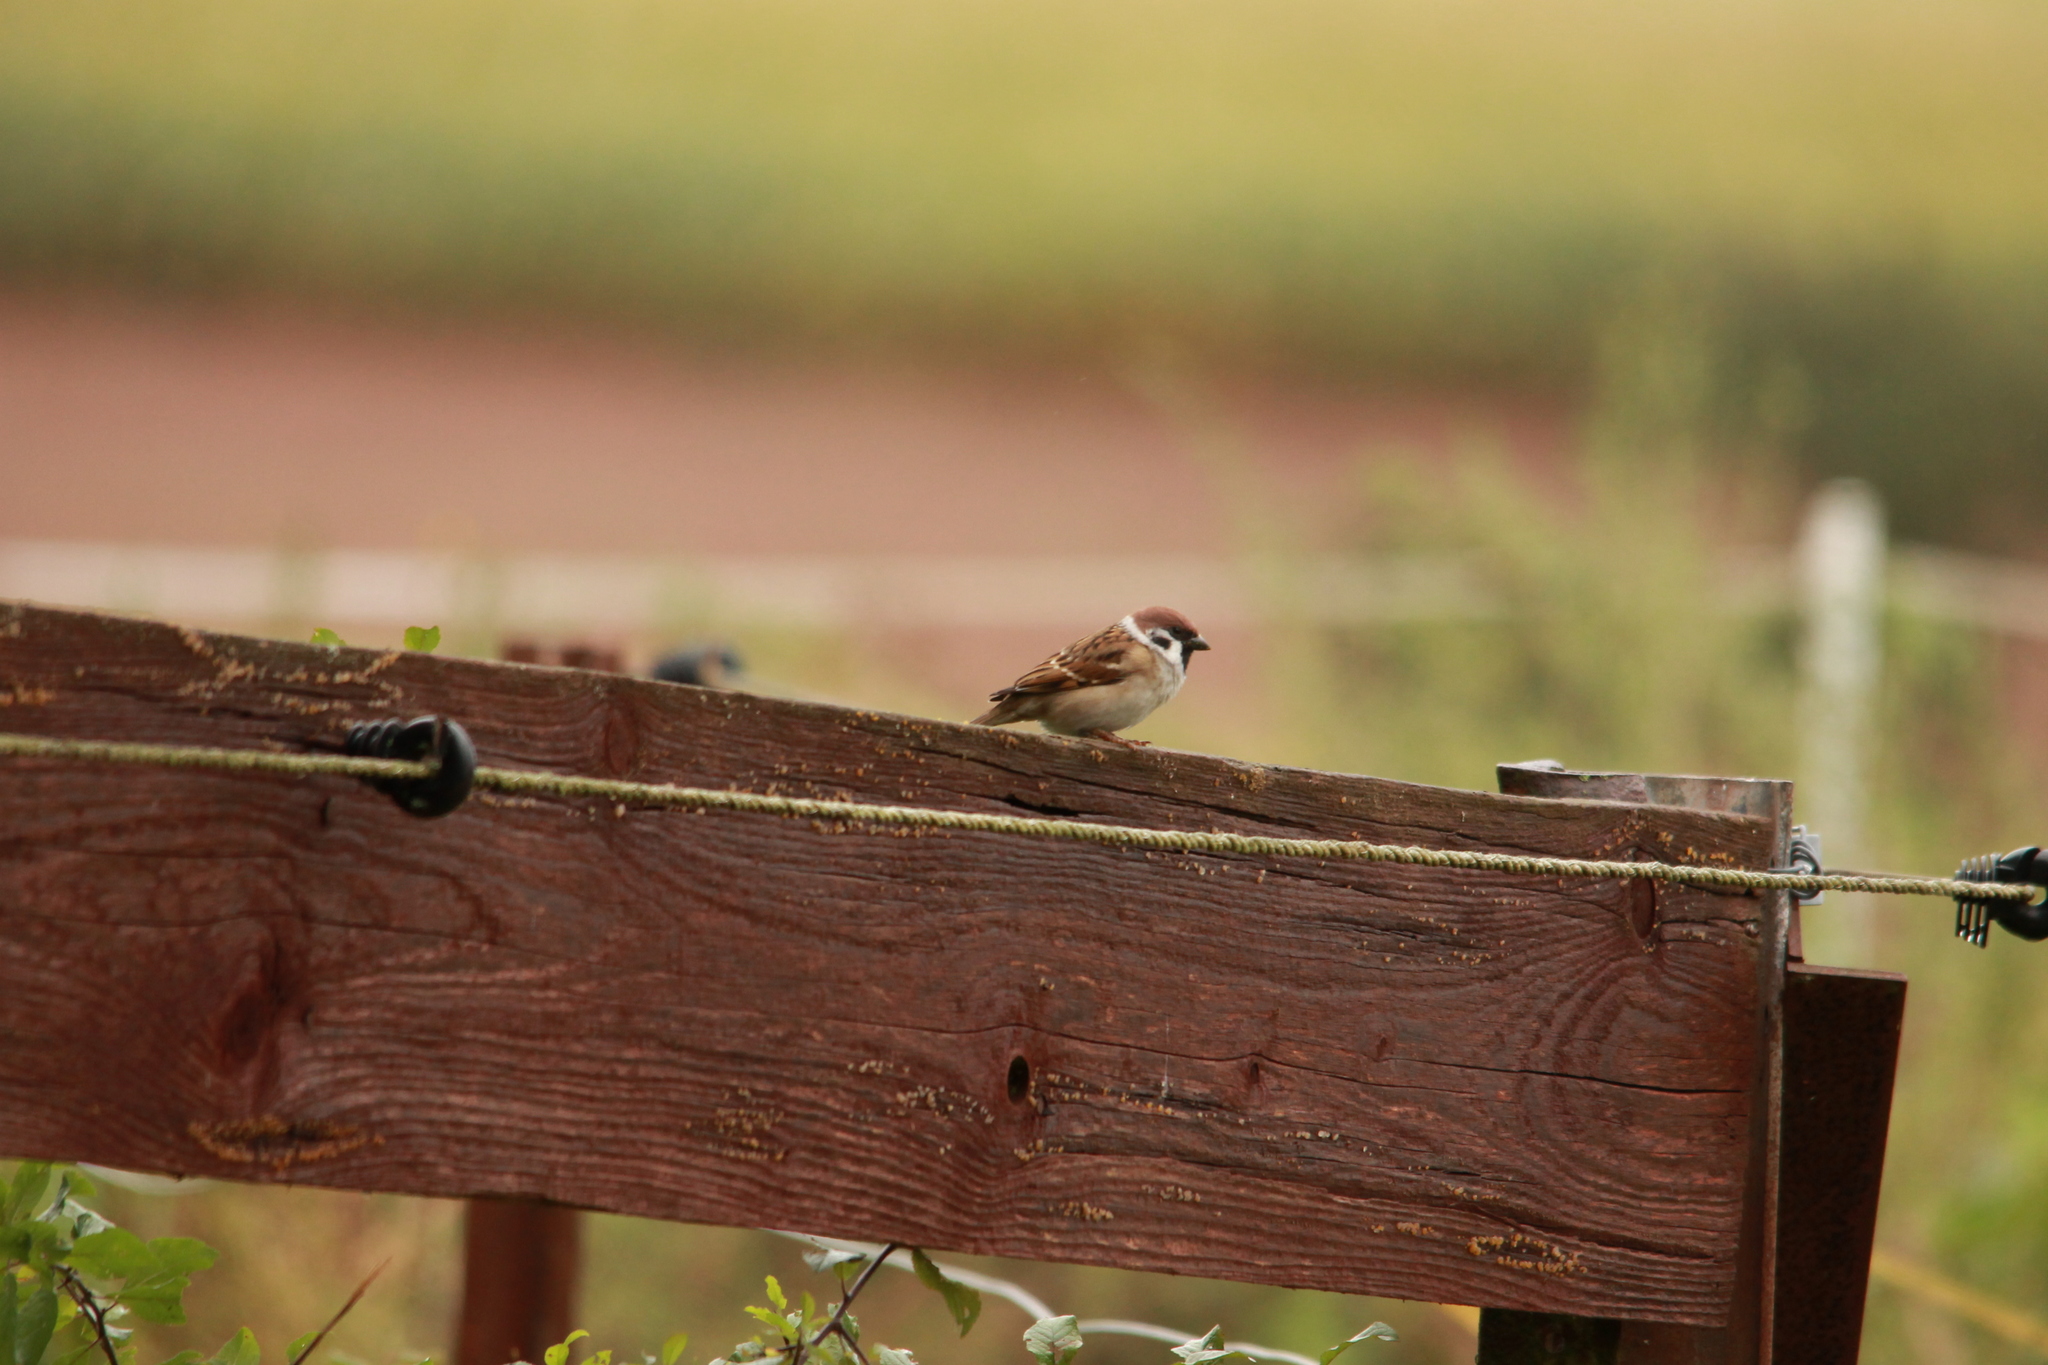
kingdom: Animalia
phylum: Chordata
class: Aves
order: Passeriformes
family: Passeridae
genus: Passer
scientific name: Passer montanus
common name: Eurasian tree sparrow
